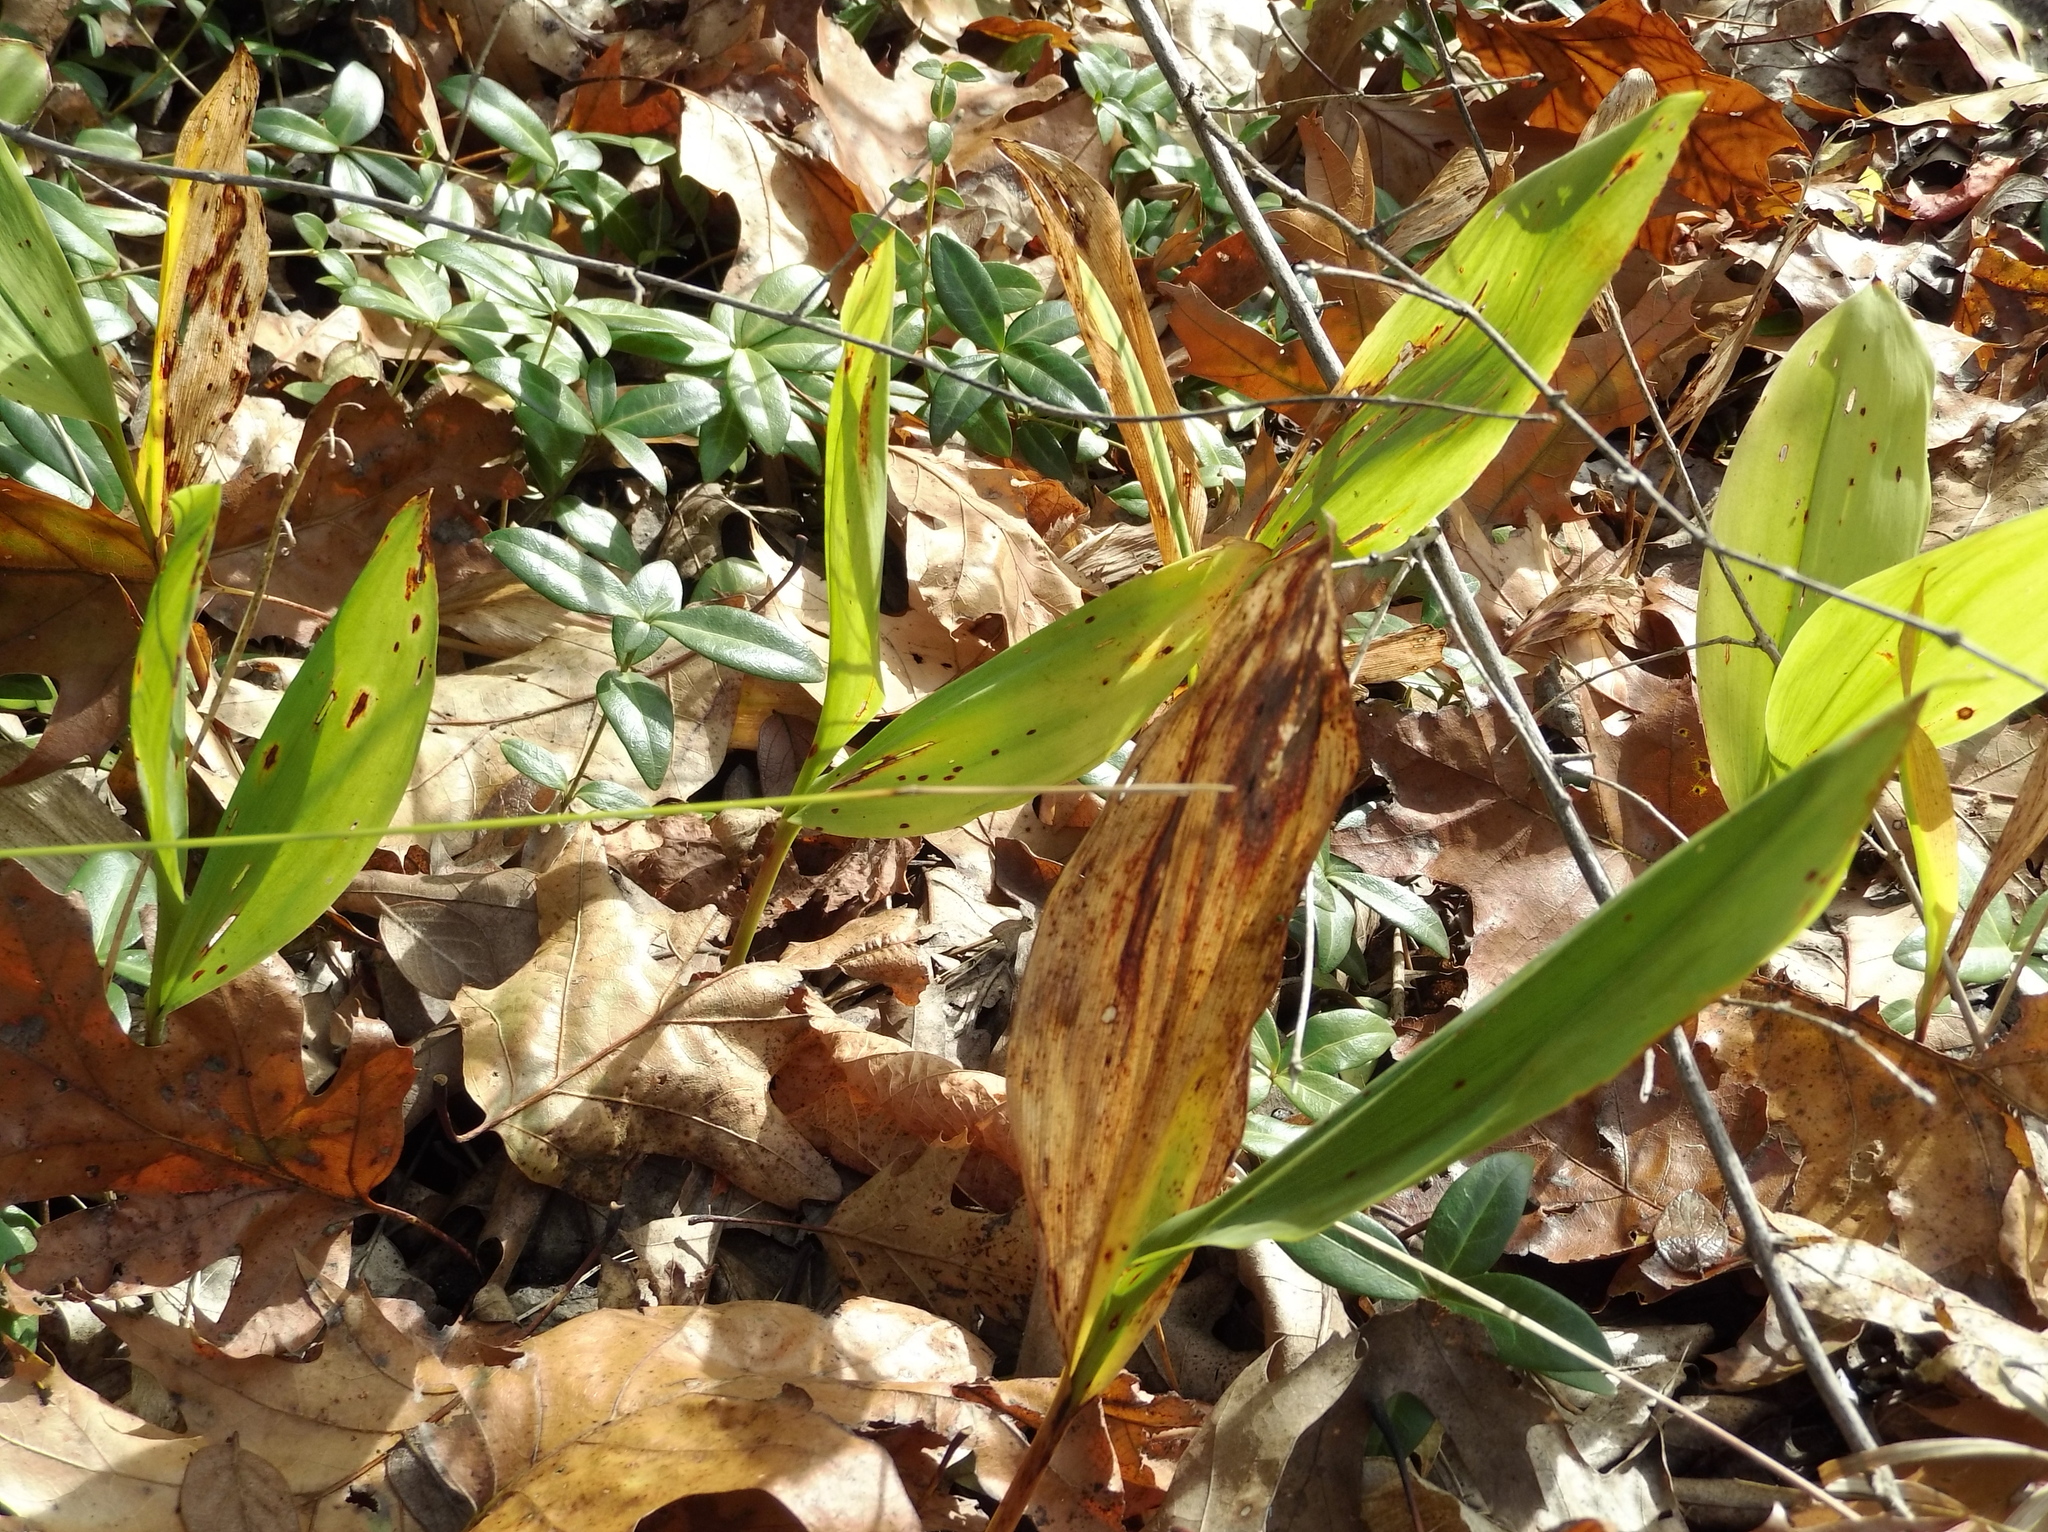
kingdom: Plantae
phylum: Tracheophyta
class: Liliopsida
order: Asparagales
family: Asparagaceae
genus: Convallaria
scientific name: Convallaria majalis
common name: Lily-of-the-valley
